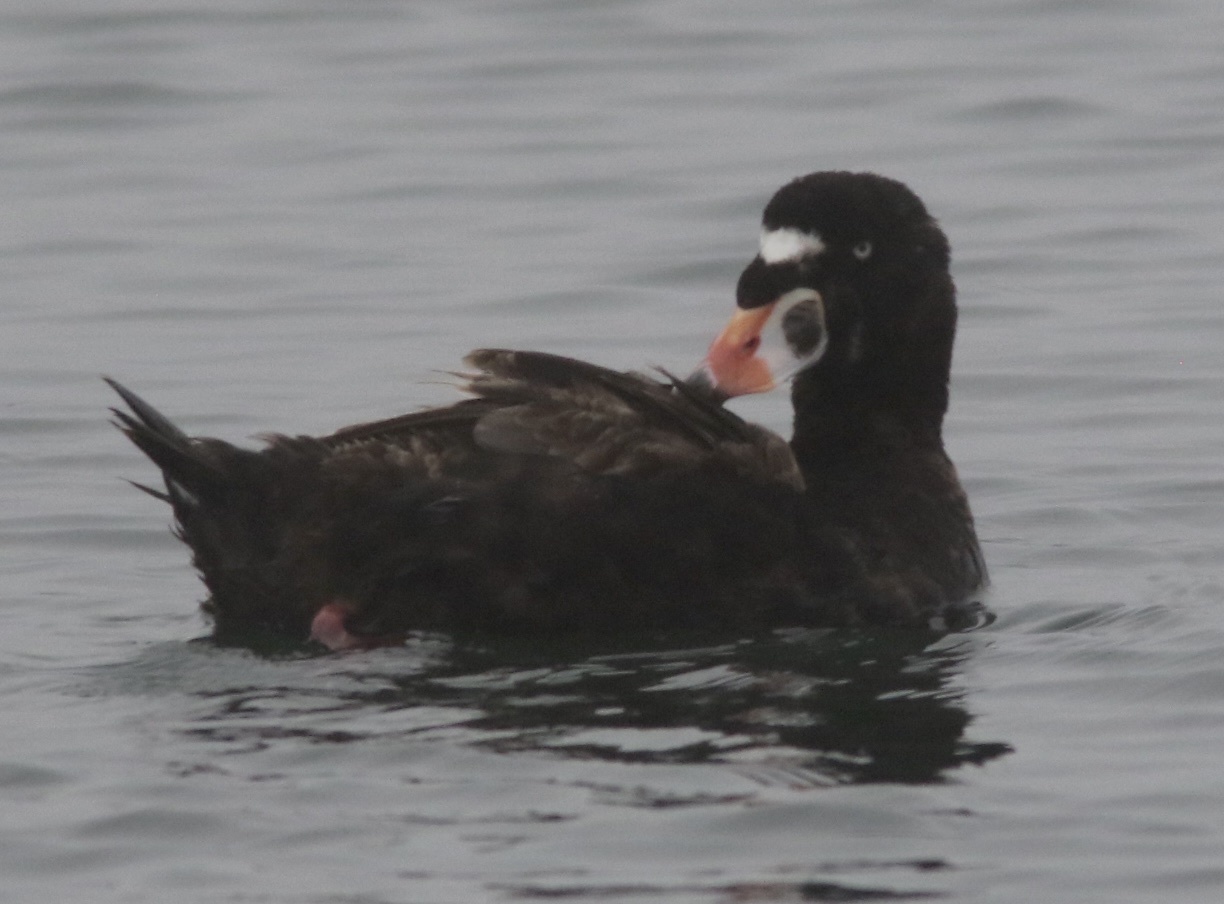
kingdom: Animalia
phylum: Chordata
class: Aves
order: Anseriformes
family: Anatidae
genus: Melanitta
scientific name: Melanitta perspicillata
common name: Surf scoter
